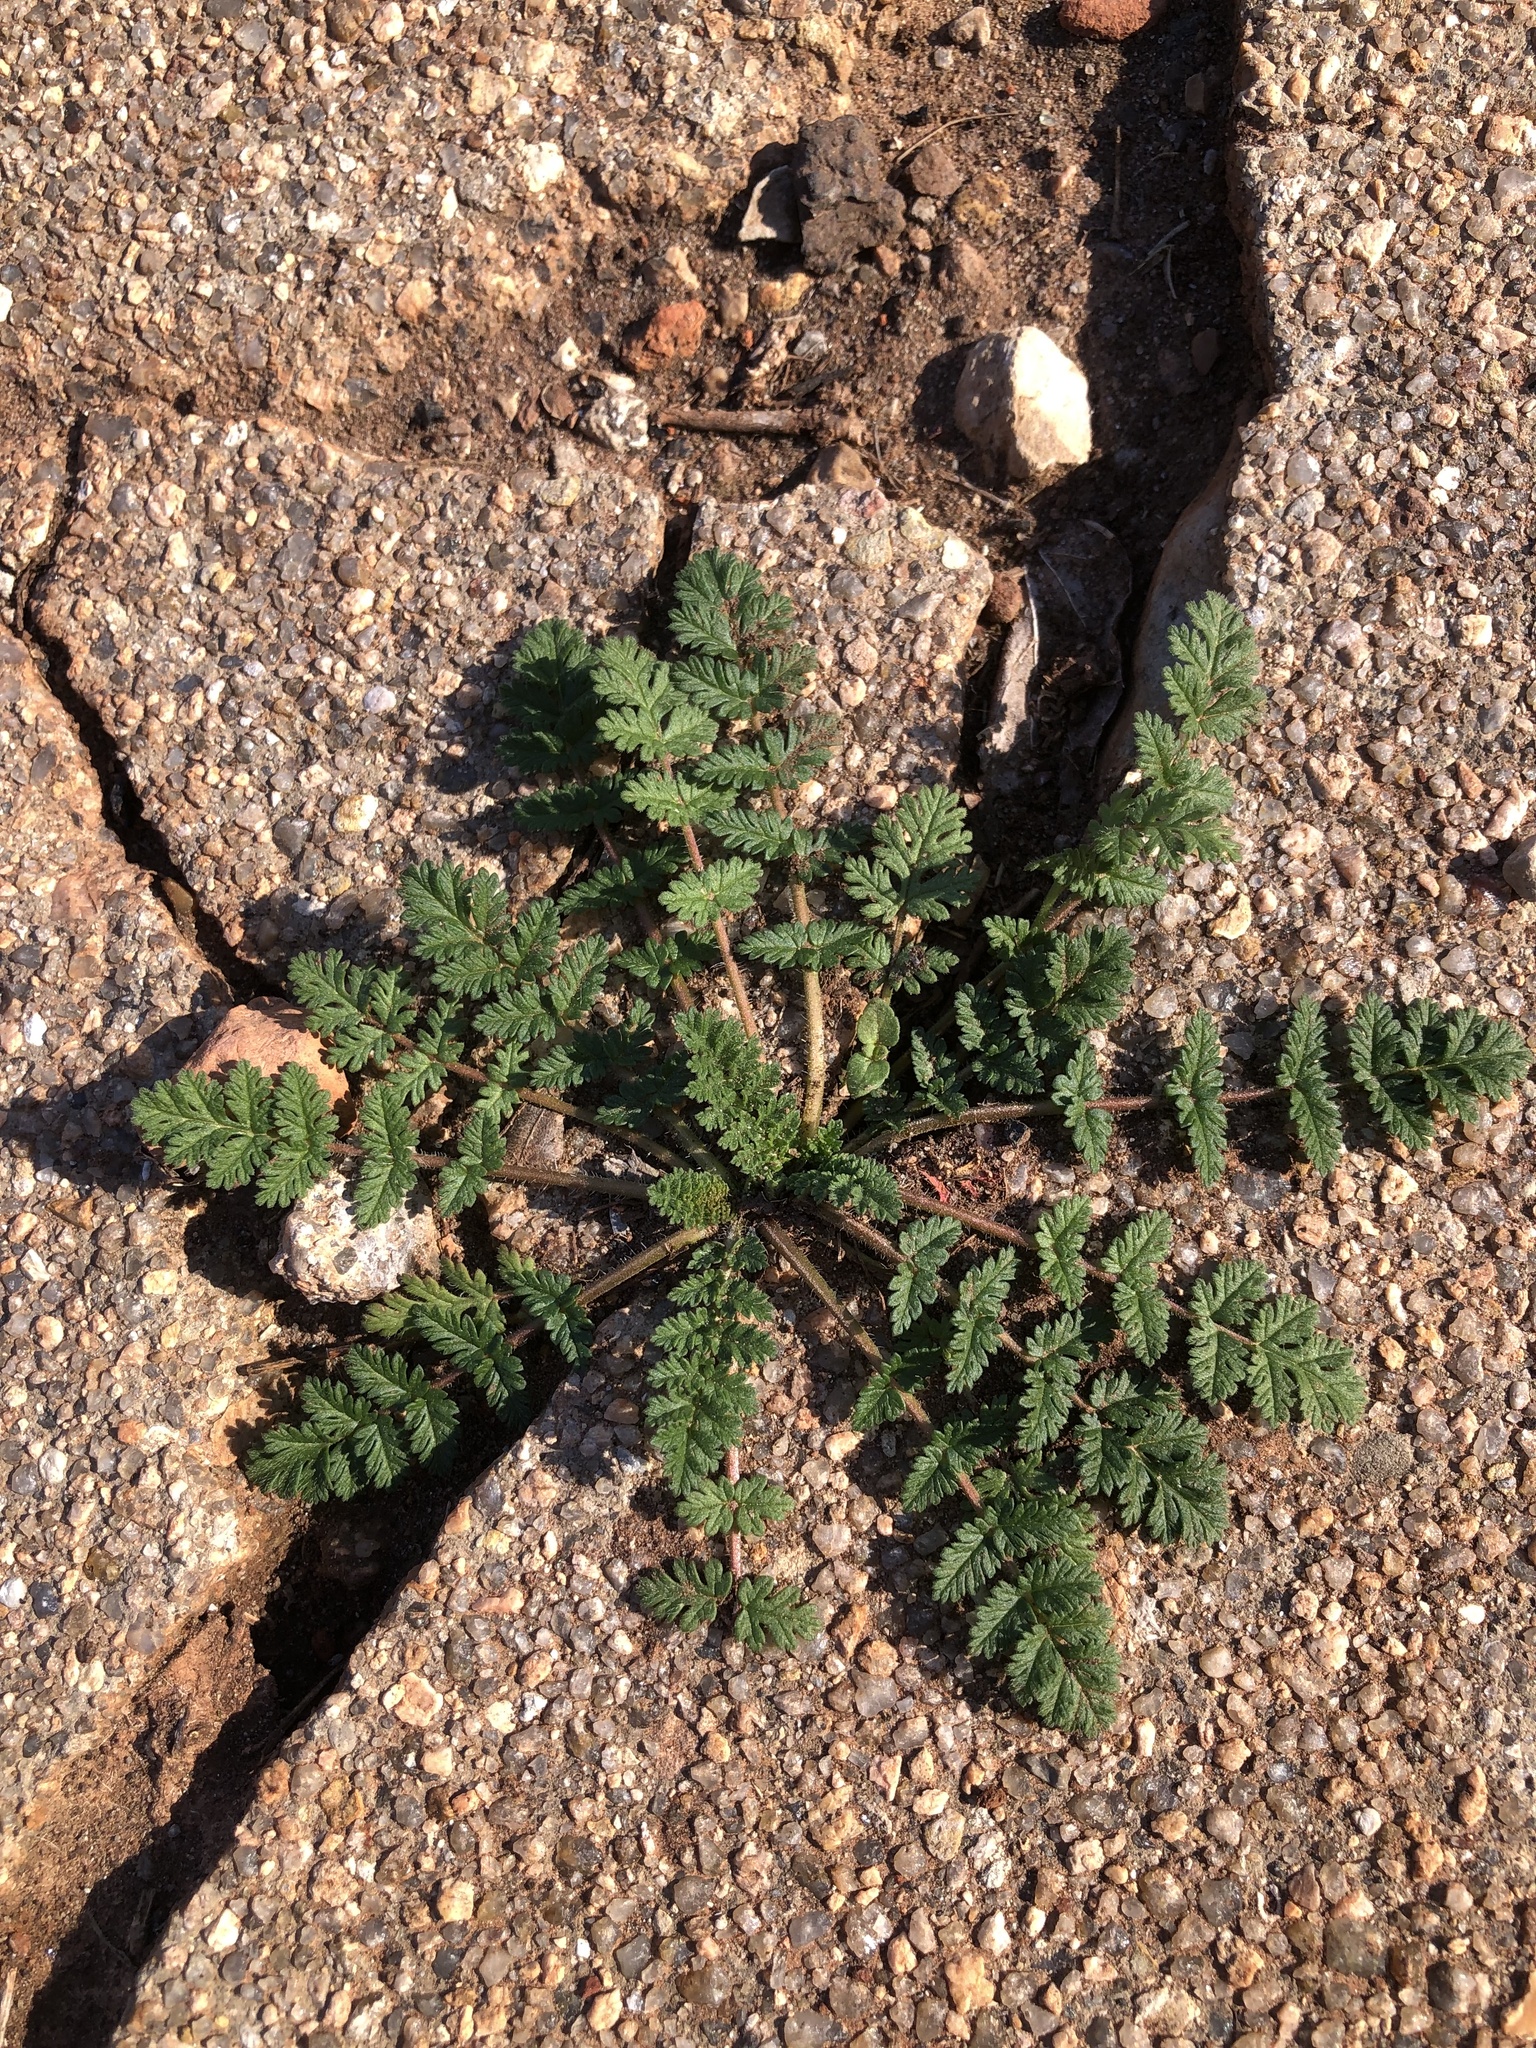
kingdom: Plantae
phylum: Tracheophyta
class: Magnoliopsida
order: Geraniales
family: Geraniaceae
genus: Erodium
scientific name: Erodium cicutarium
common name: Common stork's-bill
